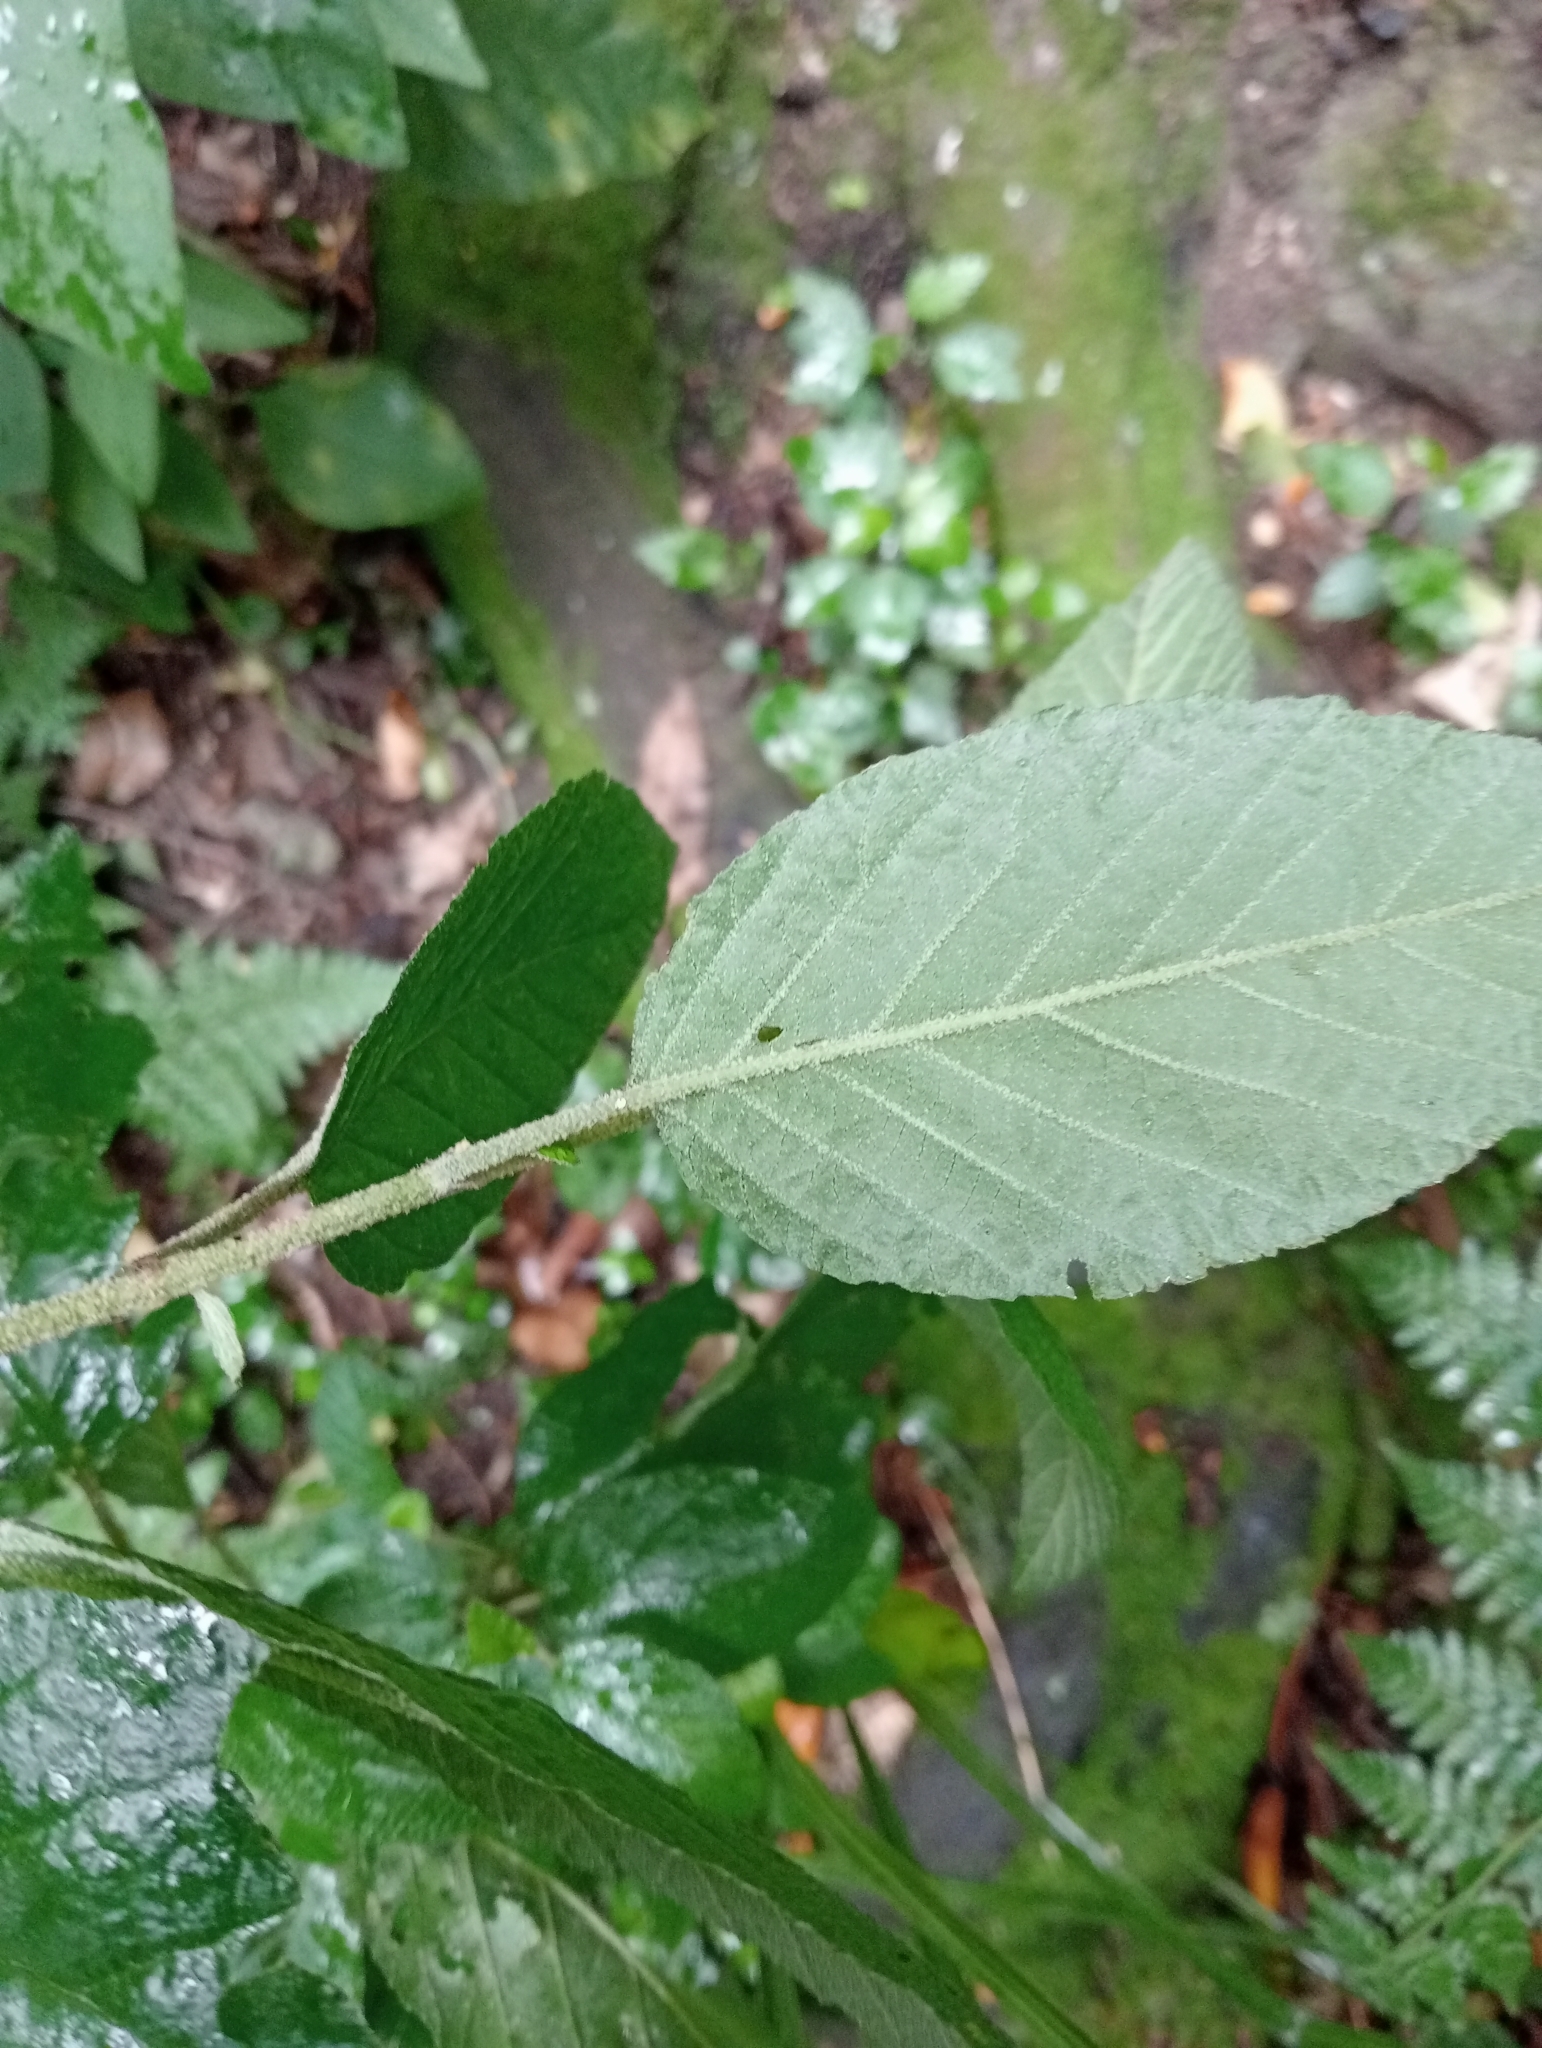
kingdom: Plantae
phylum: Tracheophyta
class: Magnoliopsida
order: Rosales
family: Rhamnaceae
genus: Pomaderris
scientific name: Pomaderris aspera
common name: Hazel pomaderris
